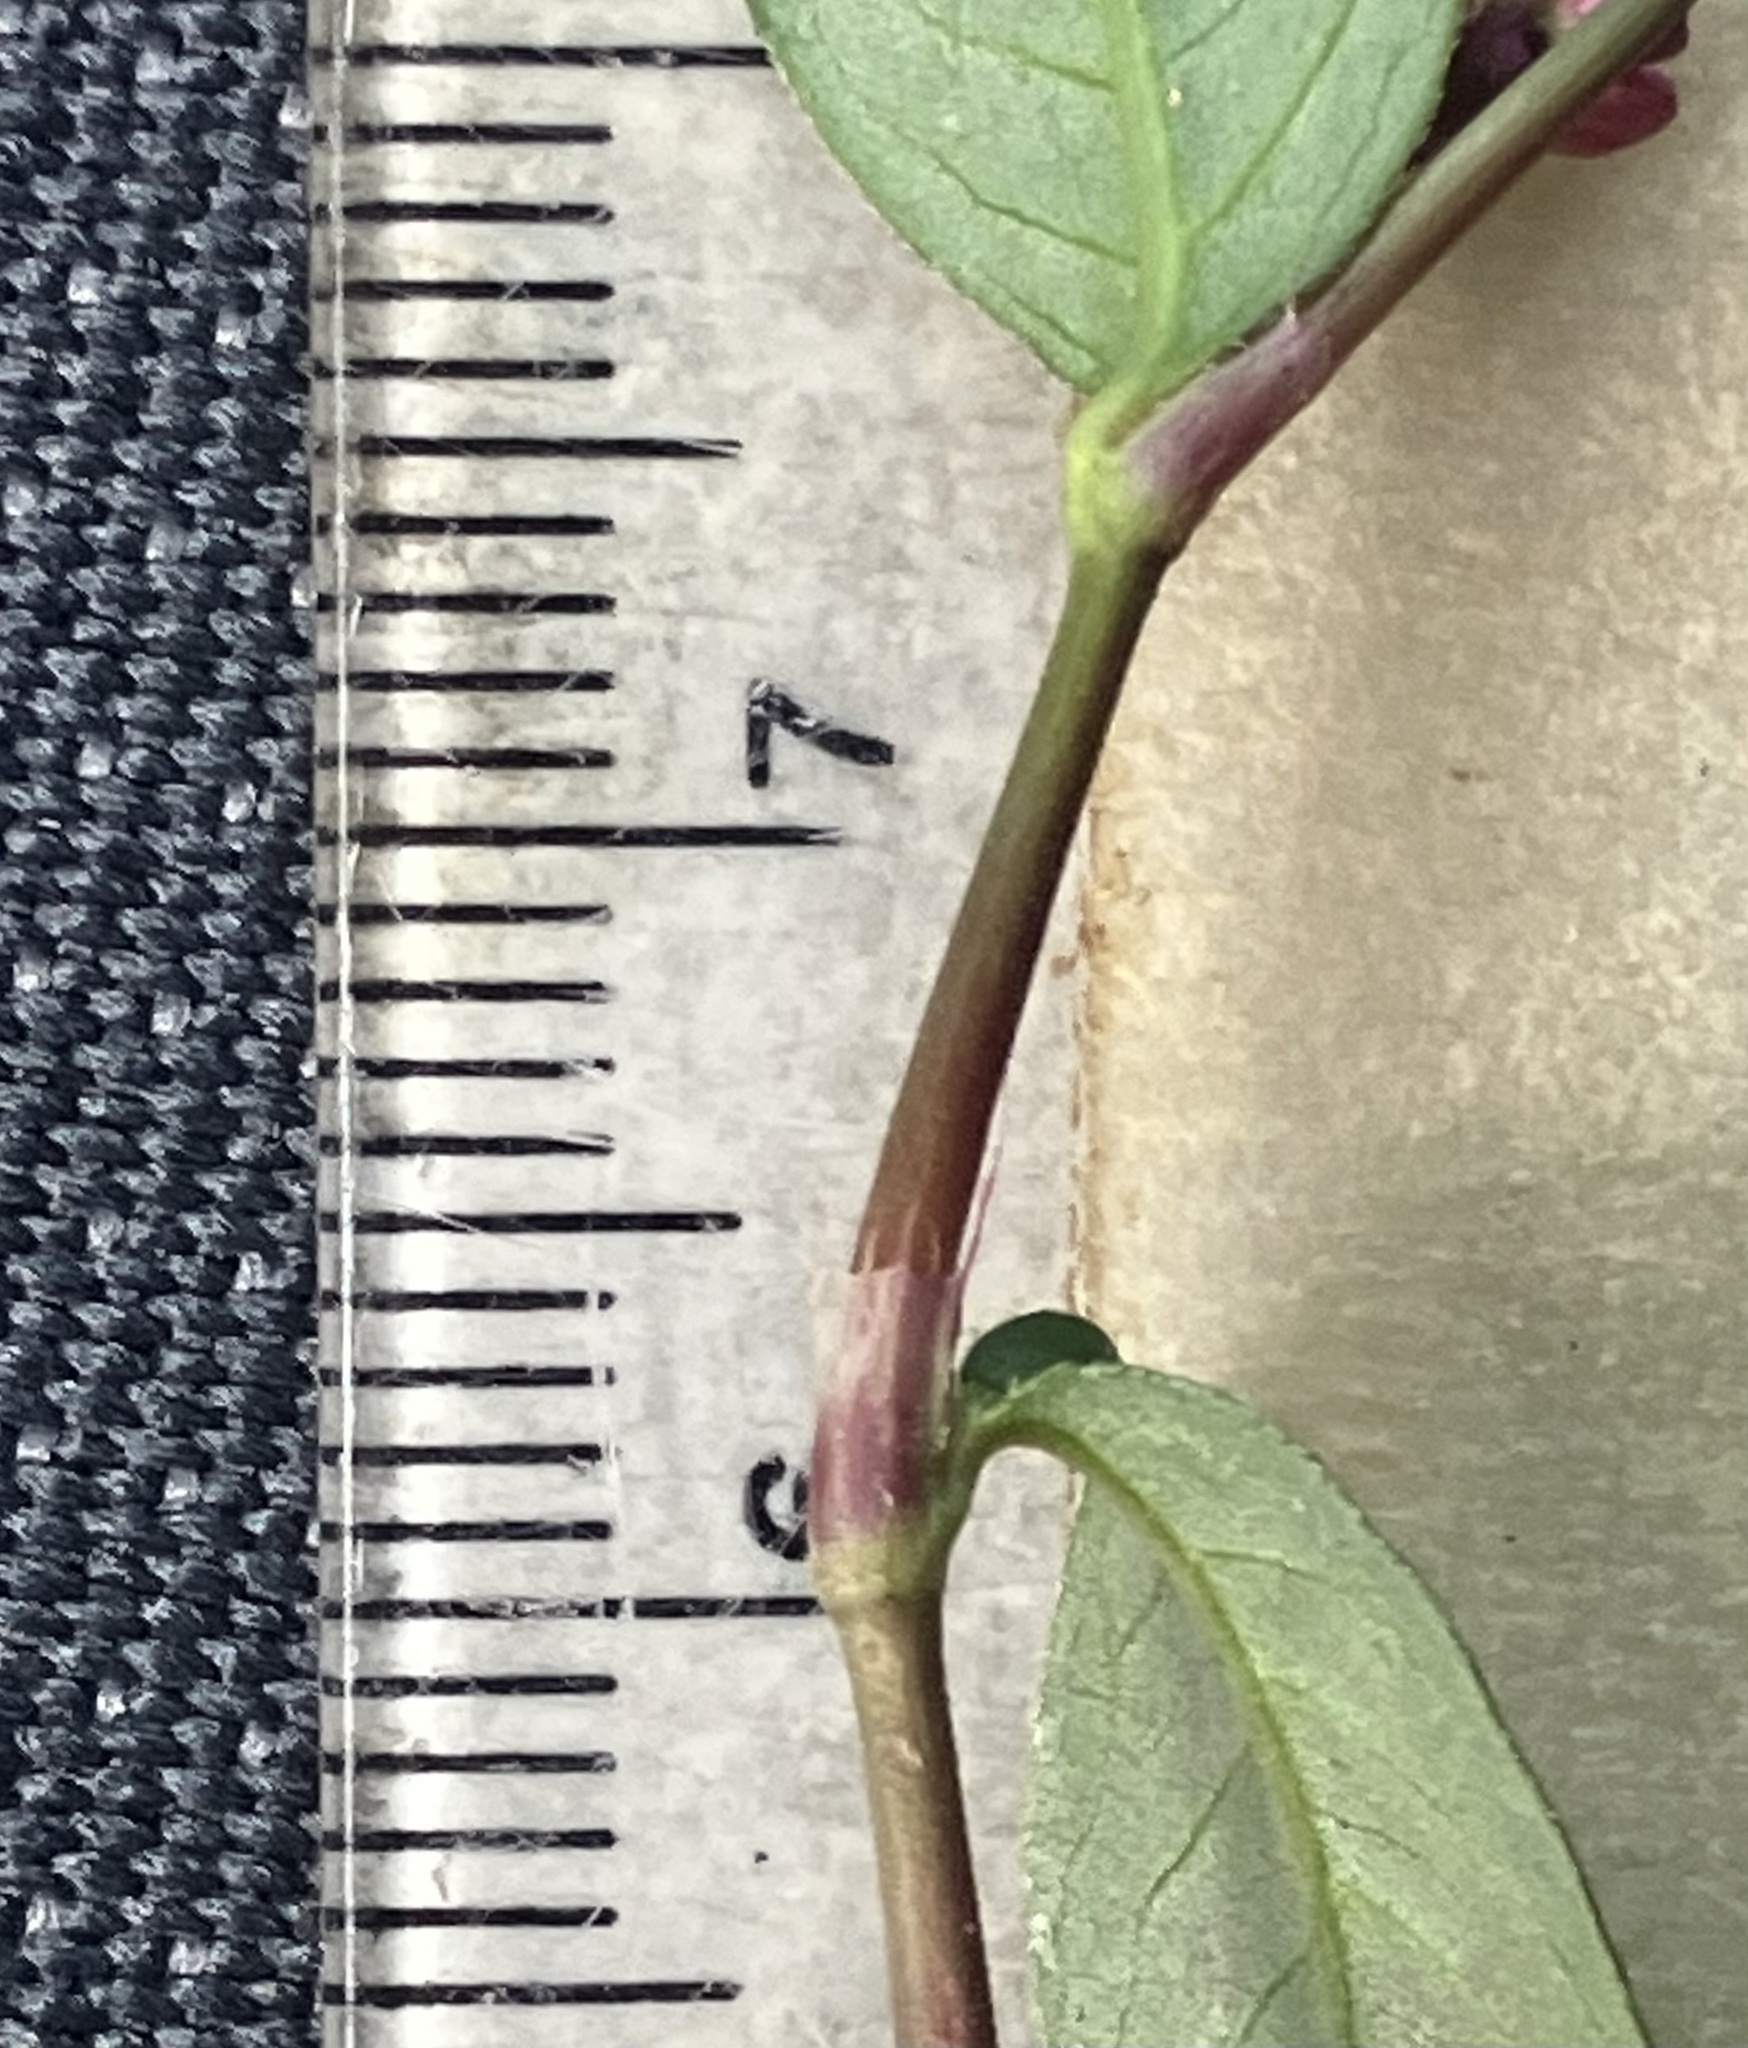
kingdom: Plantae
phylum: Tracheophyta
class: Magnoliopsida
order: Caryophyllales
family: Polygonaceae
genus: Persicaria
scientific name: Persicaria longiseta
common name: Bristly lady's-thumb
